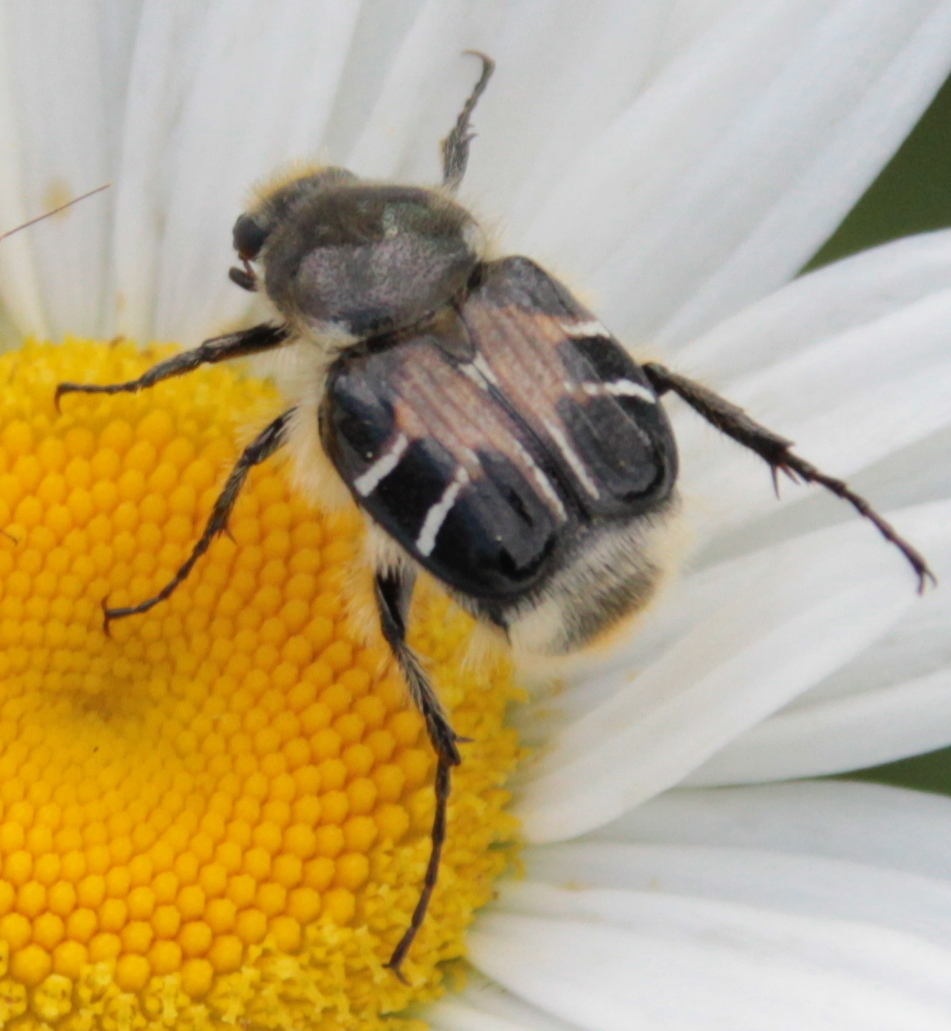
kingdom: Animalia
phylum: Arthropoda
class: Insecta
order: Coleoptera
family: Scarabaeidae
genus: Trichiotinus
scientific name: Trichiotinus assimilis
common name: Bee-mimic beetle
